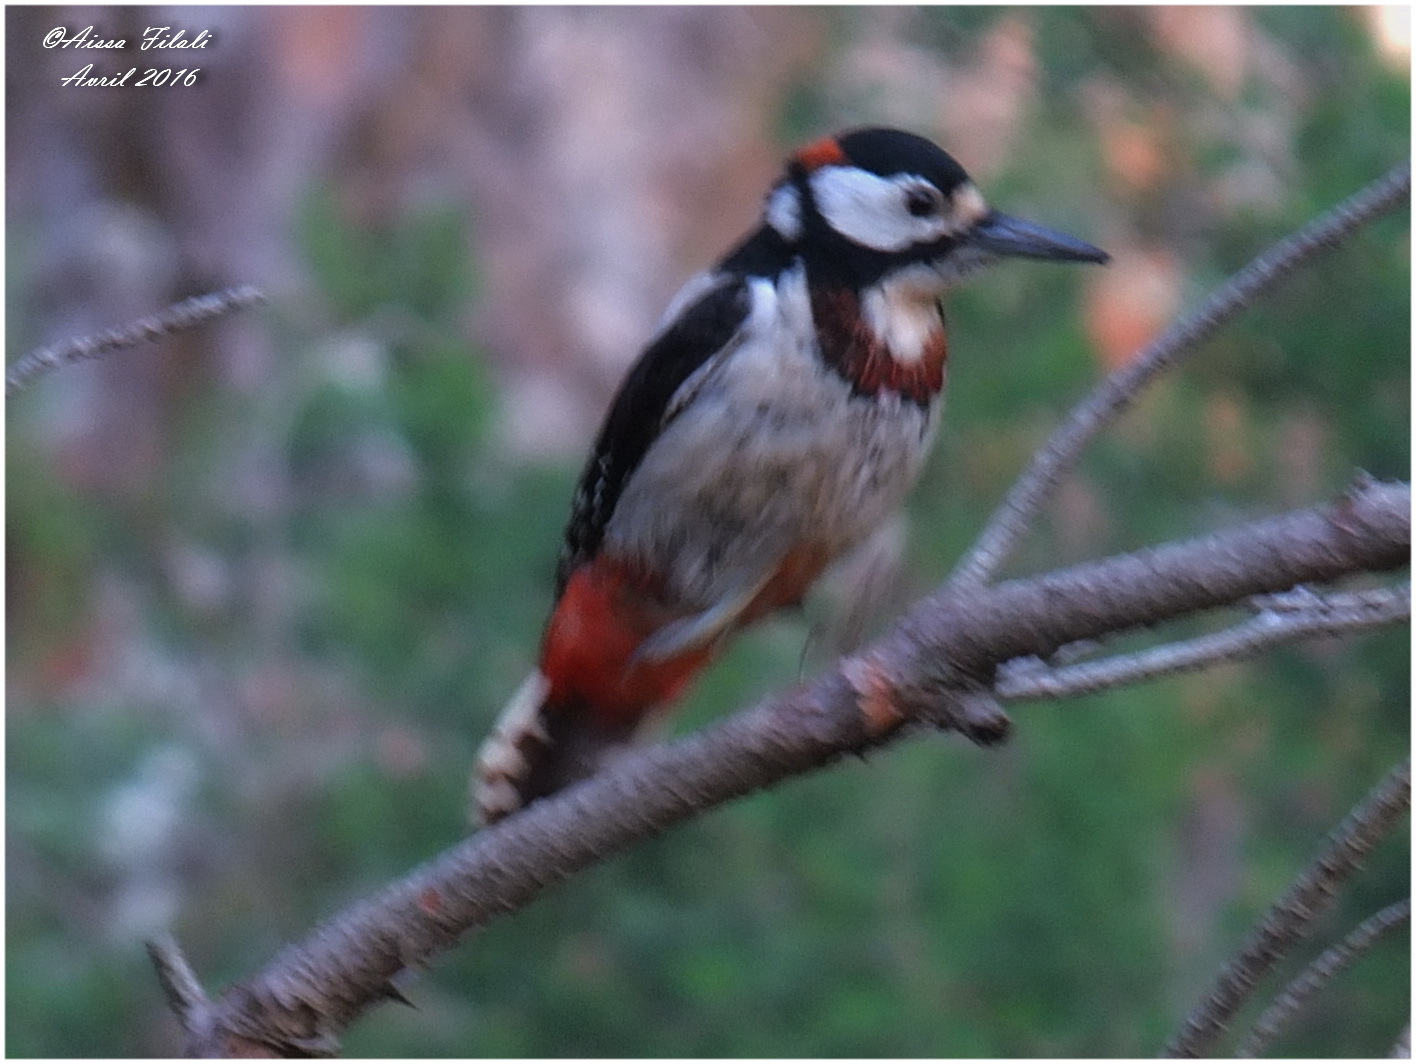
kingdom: Animalia
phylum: Chordata
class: Aves
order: Piciformes
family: Picidae
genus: Dendrocopos
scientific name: Dendrocopos major
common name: Great spotted woodpecker
